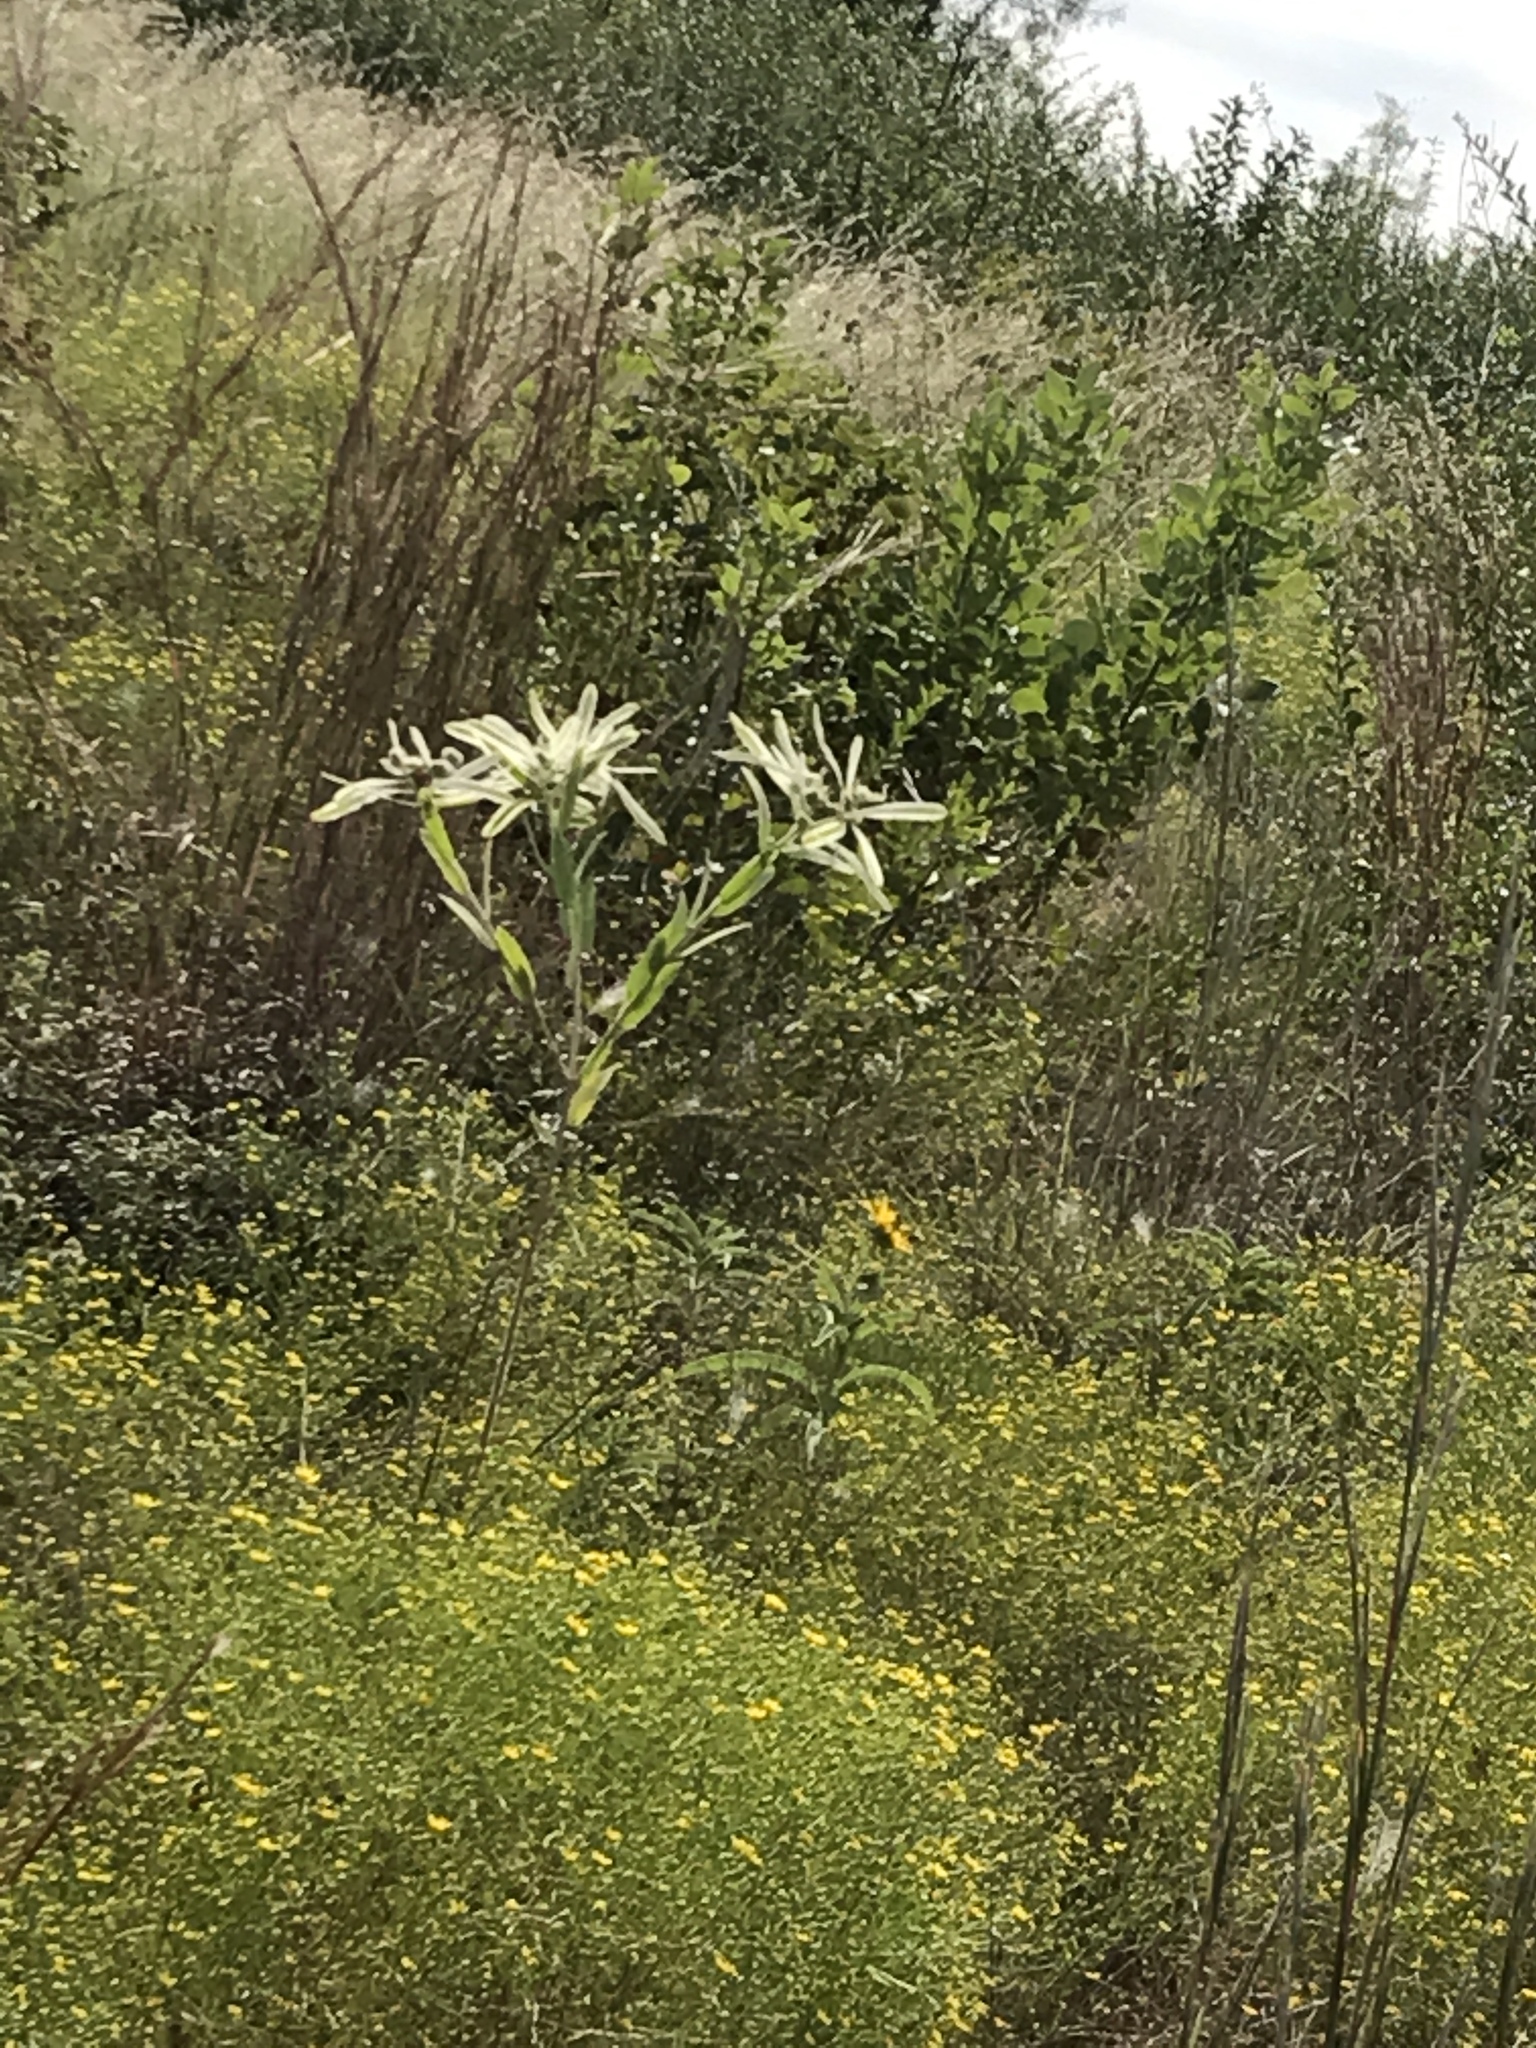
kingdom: Plantae
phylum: Tracheophyta
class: Magnoliopsida
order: Malpighiales
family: Euphorbiaceae
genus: Euphorbia
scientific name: Euphorbia bicolor
